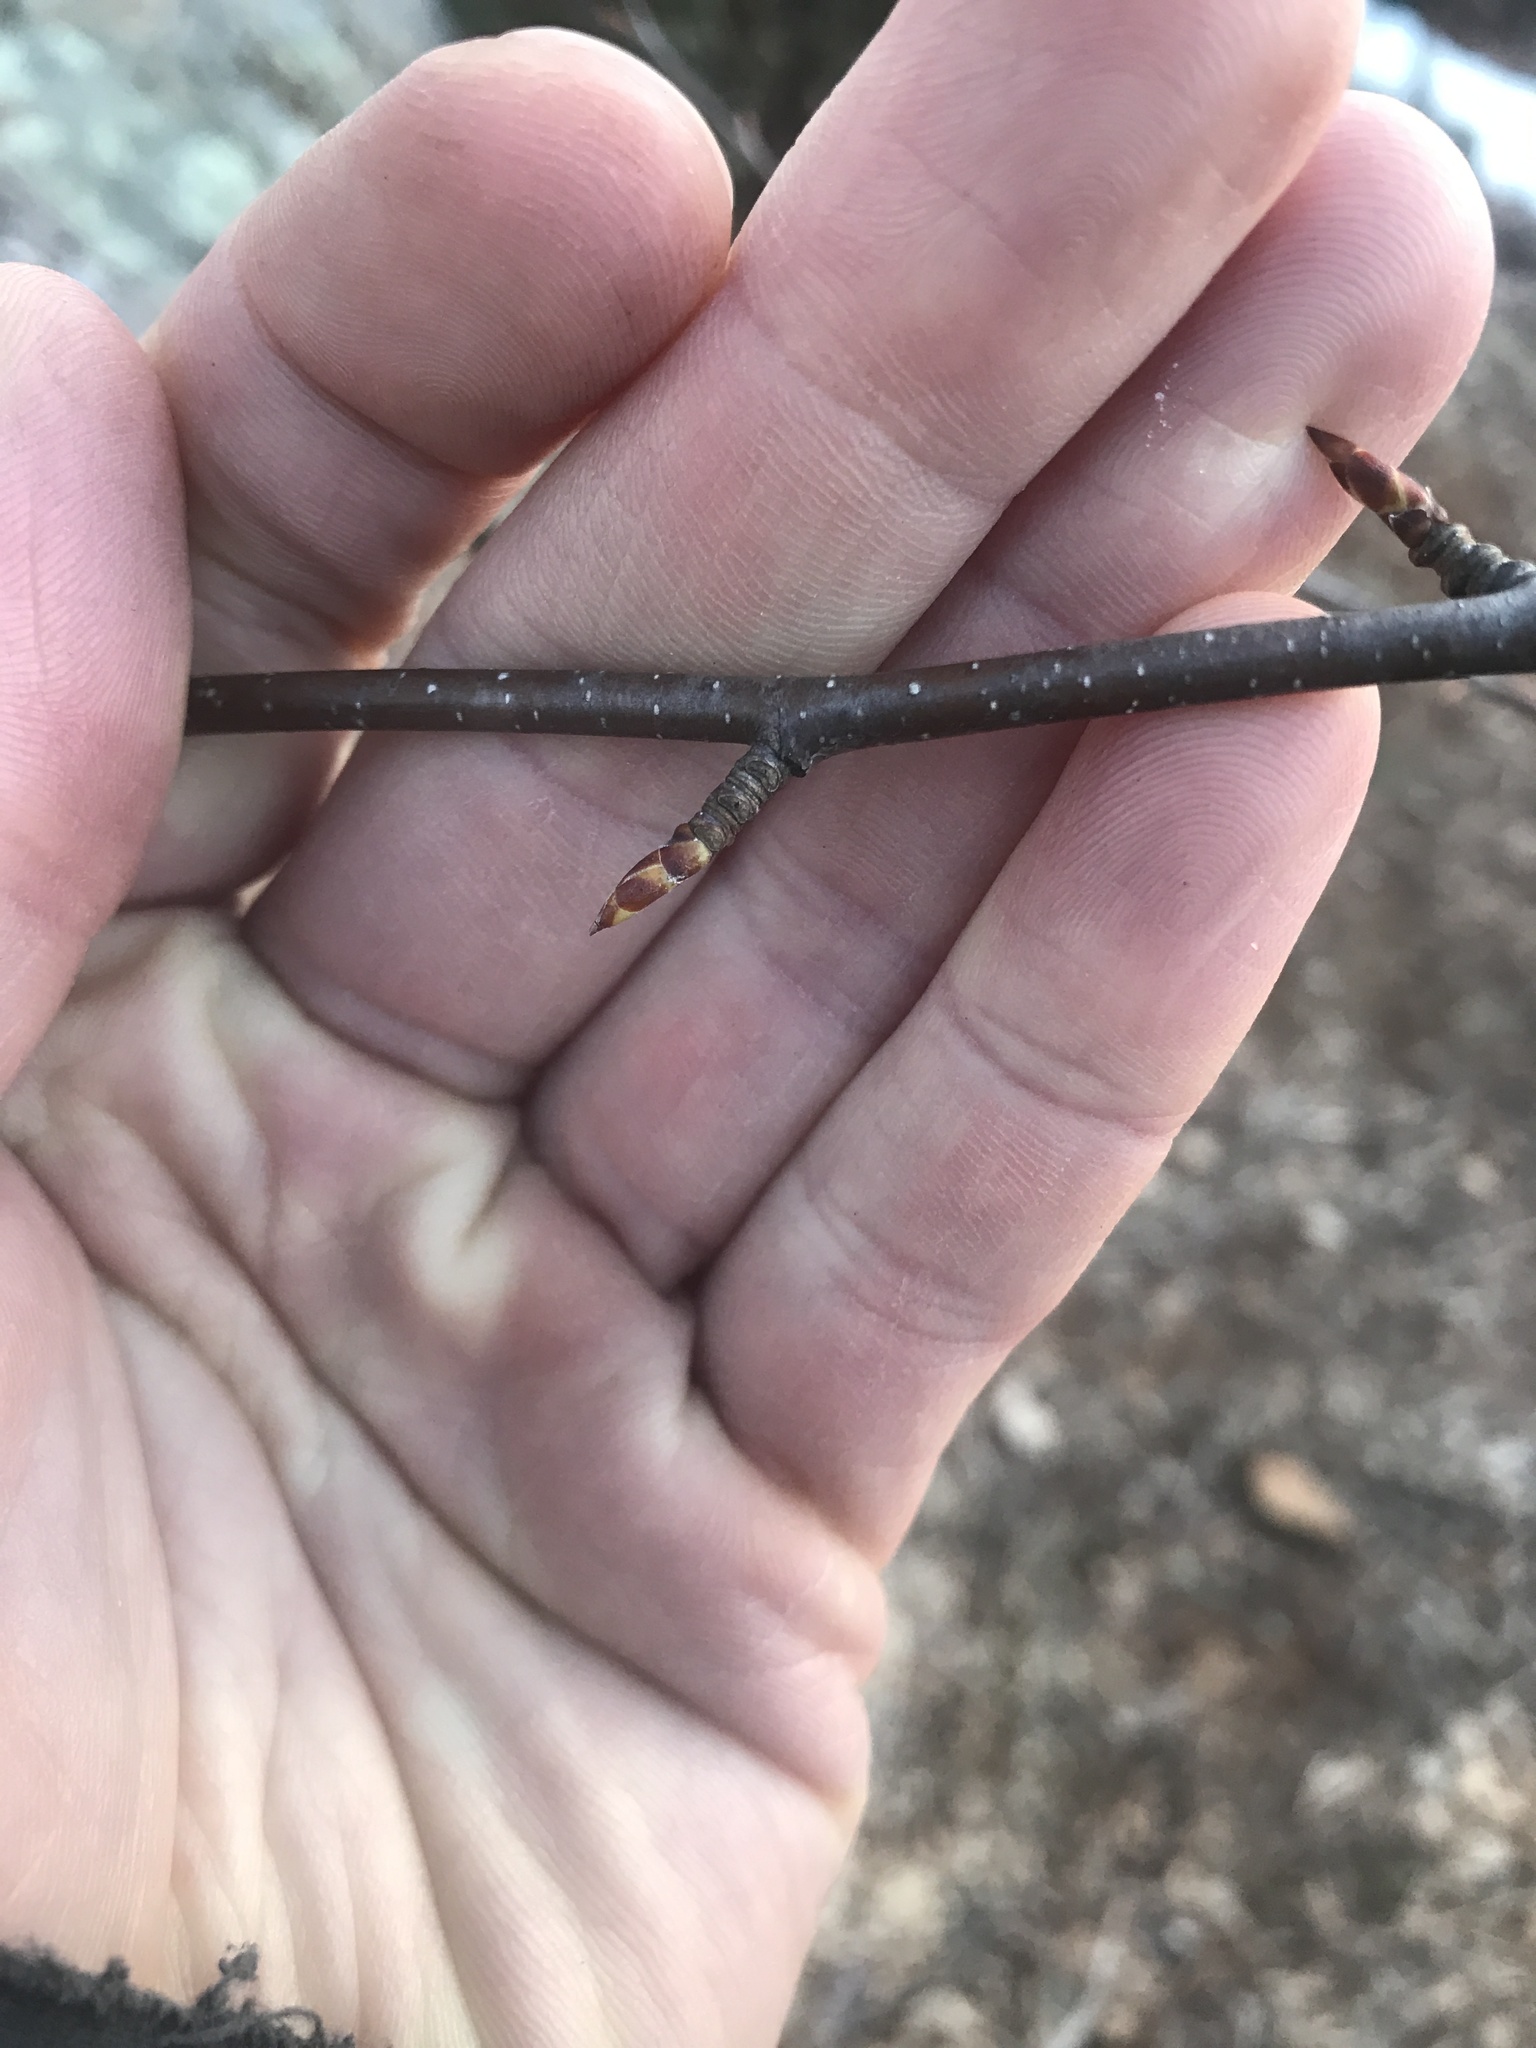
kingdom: Plantae
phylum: Tracheophyta
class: Magnoliopsida
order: Fagales
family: Betulaceae
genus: Betula
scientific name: Betula lenta
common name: Black birch
